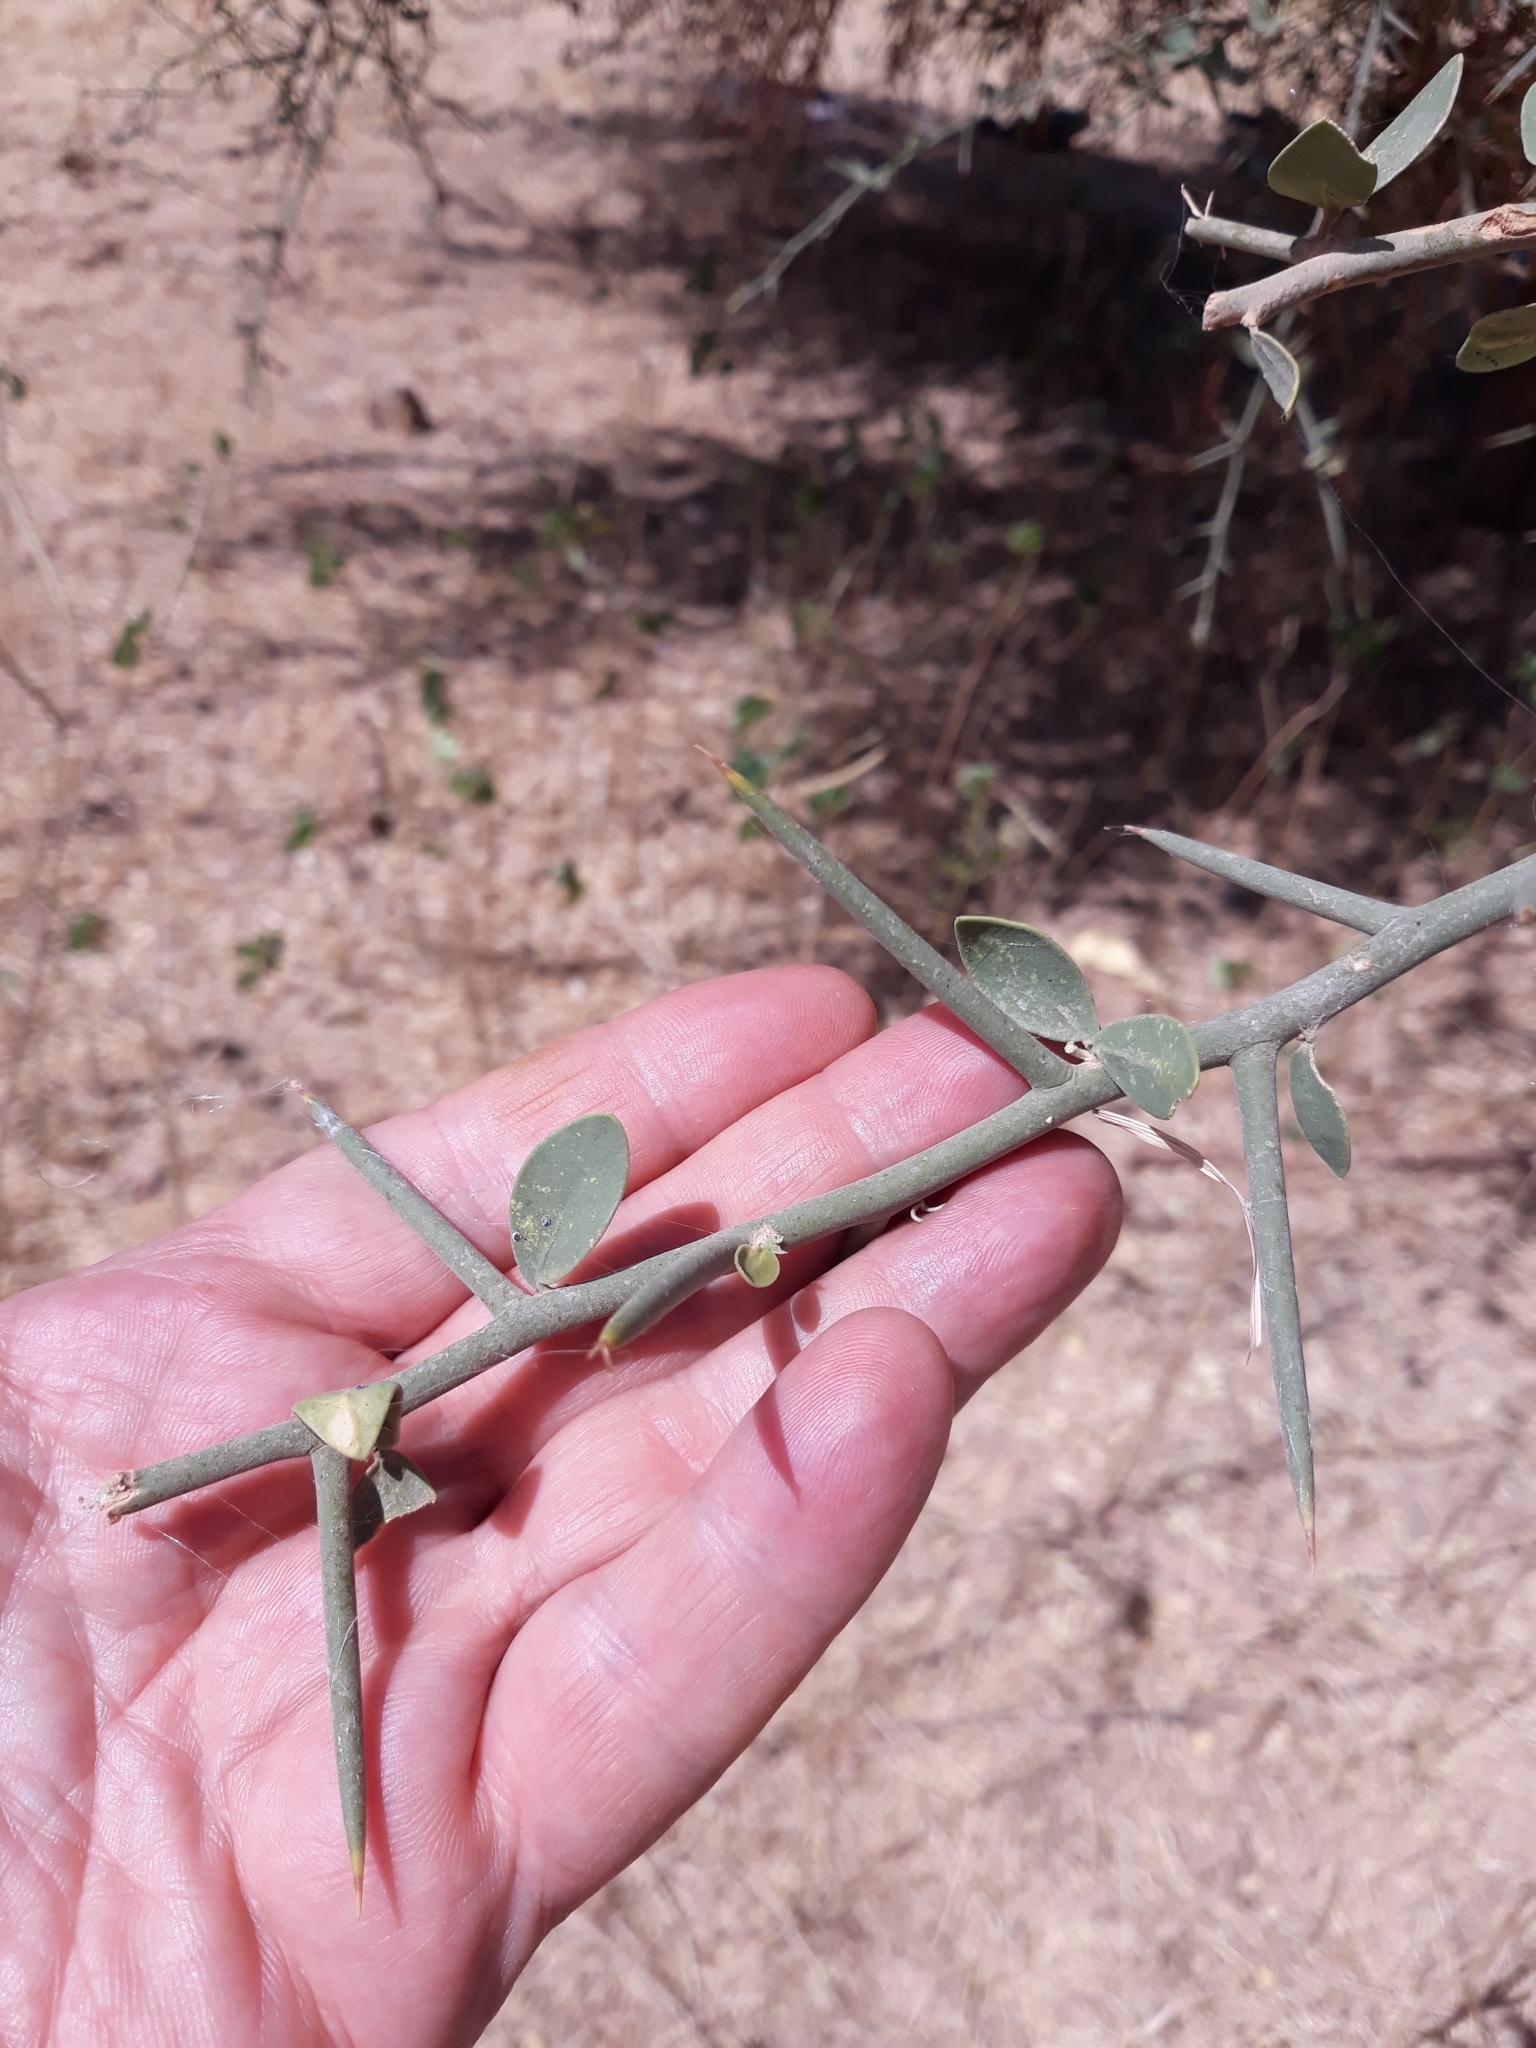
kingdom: Plantae
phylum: Tracheophyta
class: Magnoliopsida
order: Zygophyllales
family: Zygophyllaceae
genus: Balanites
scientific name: Balanites aegyptiaca
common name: Balanites
